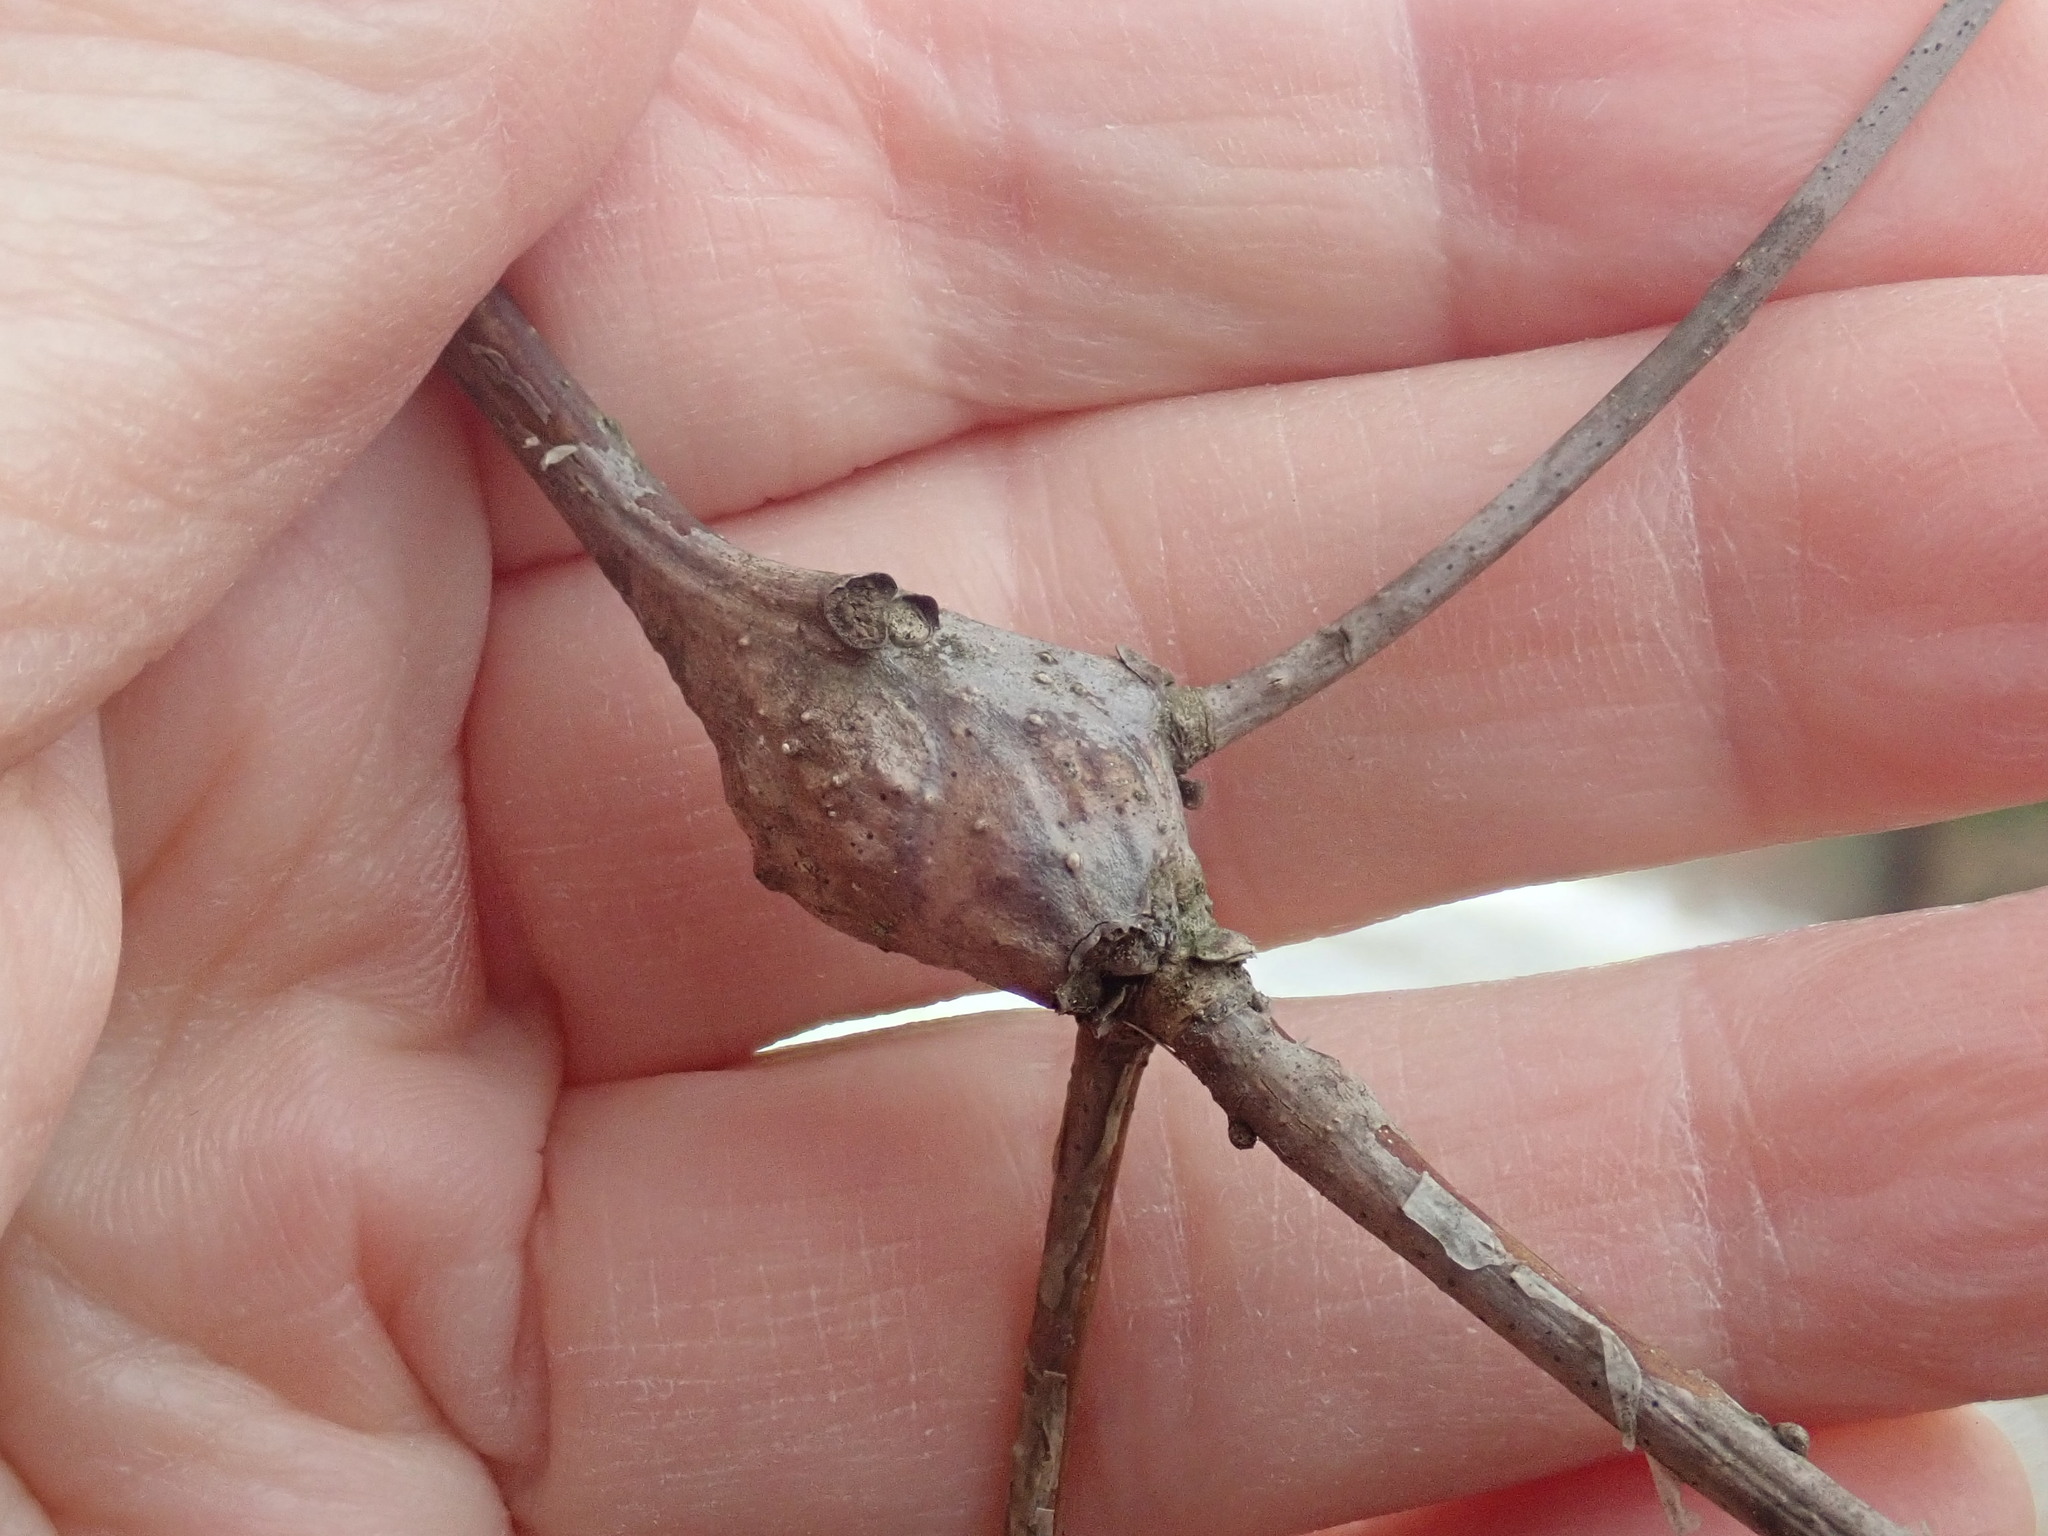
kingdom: Animalia
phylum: Arthropoda
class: Insecta
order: Hymenoptera
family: Cynipidae
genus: Callirhytis
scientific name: Callirhytis clavula
